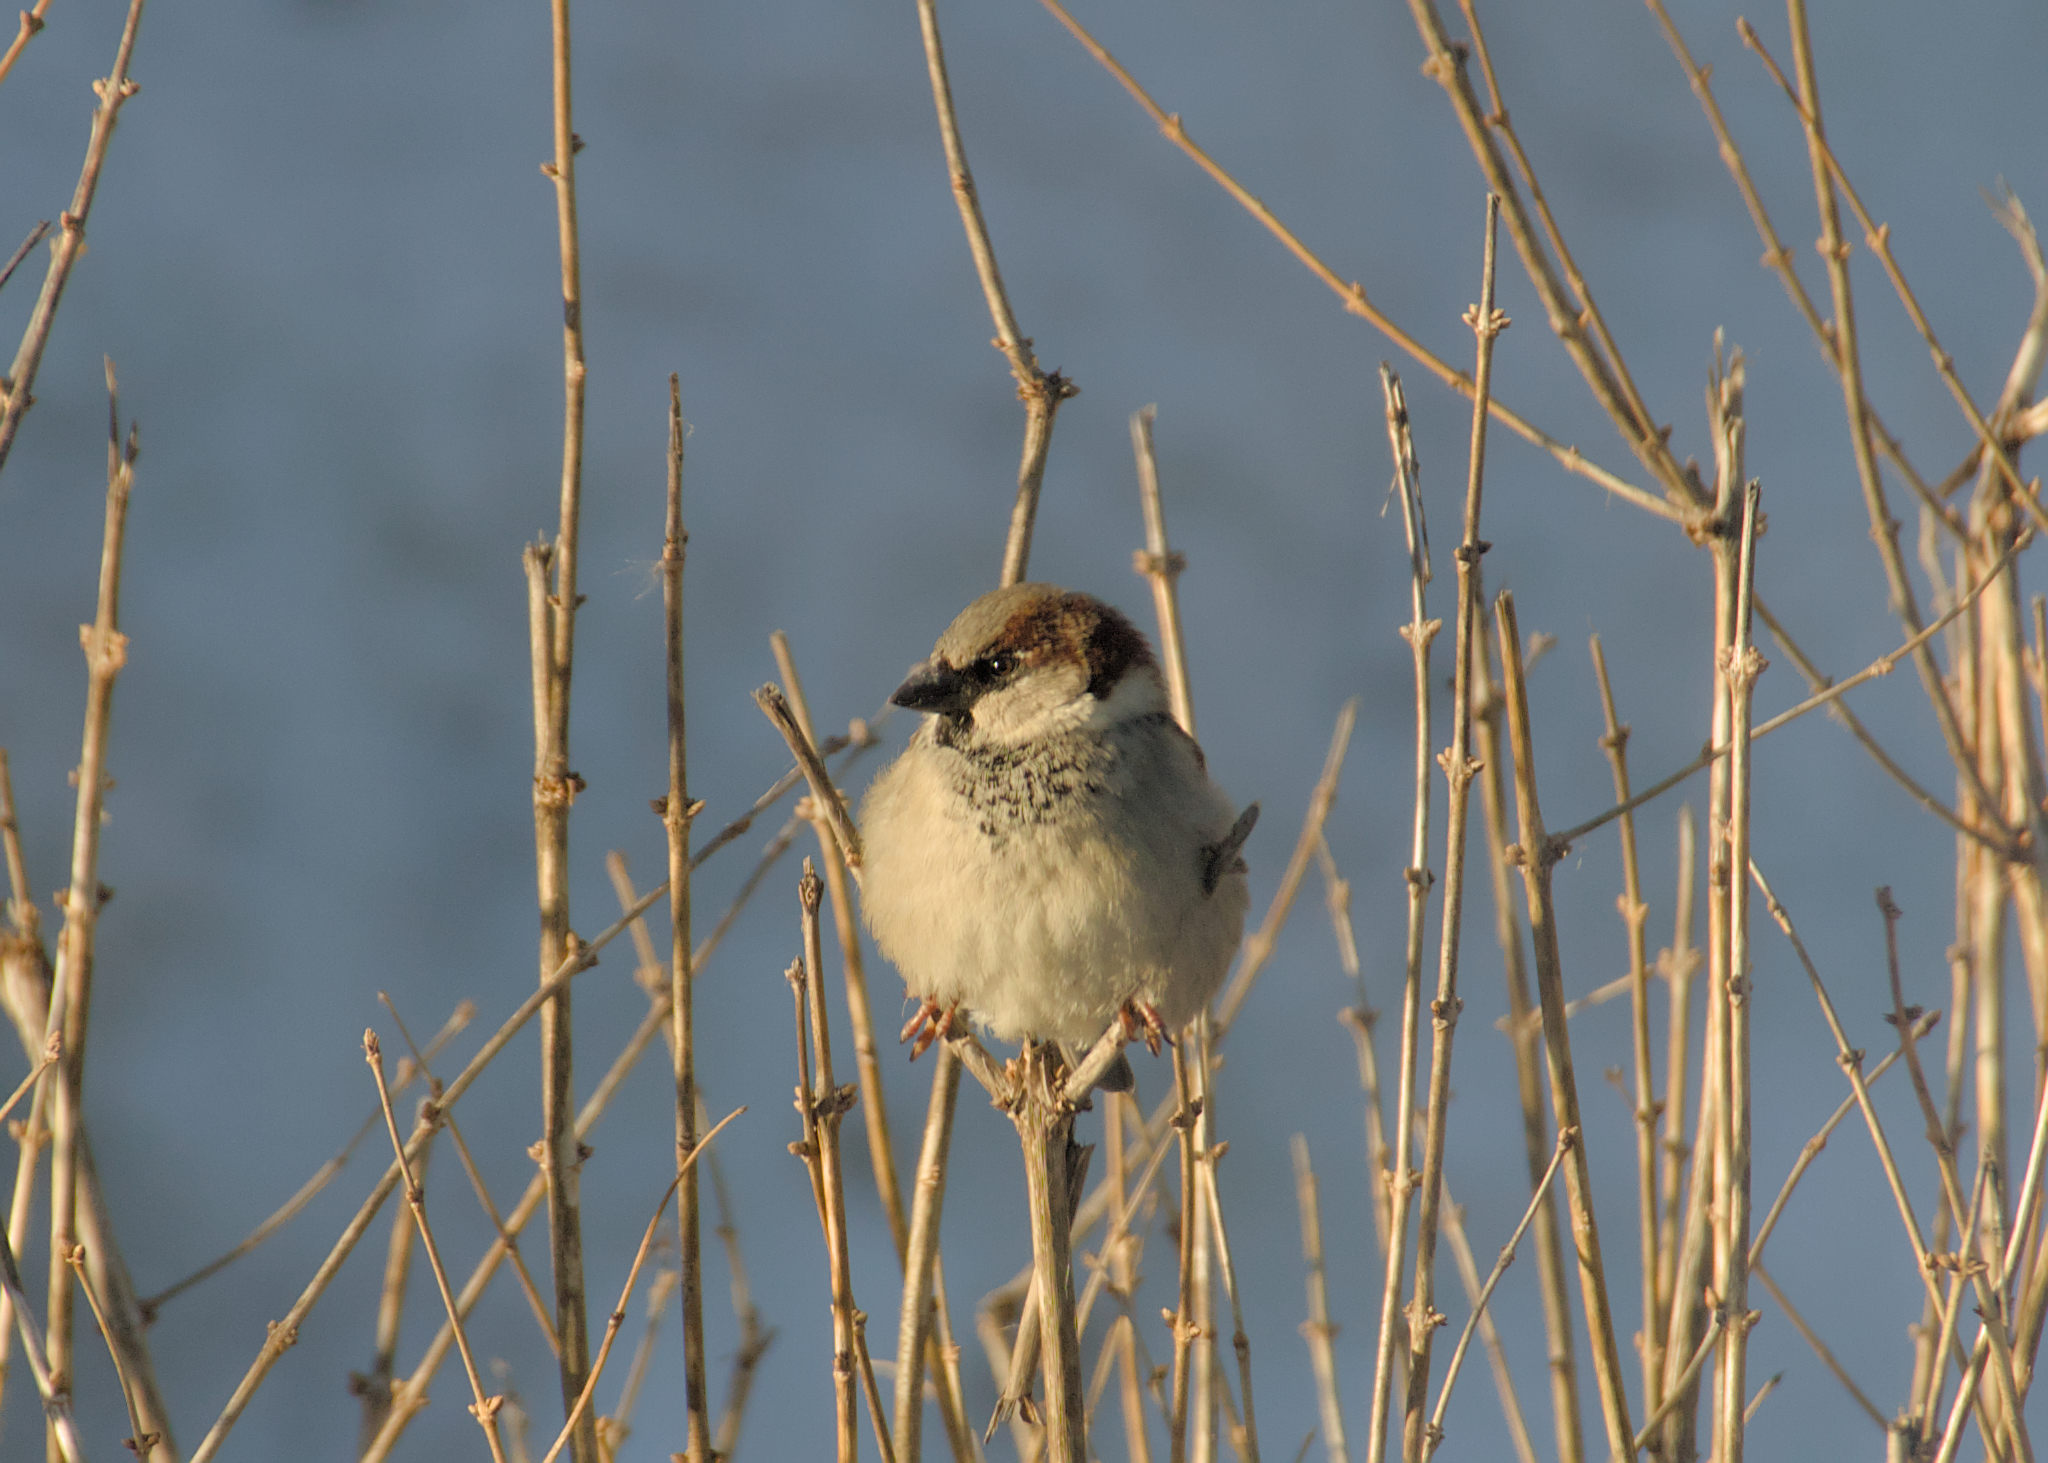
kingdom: Animalia
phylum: Chordata
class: Aves
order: Passeriformes
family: Passeridae
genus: Passer
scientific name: Passer domesticus
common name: House sparrow
